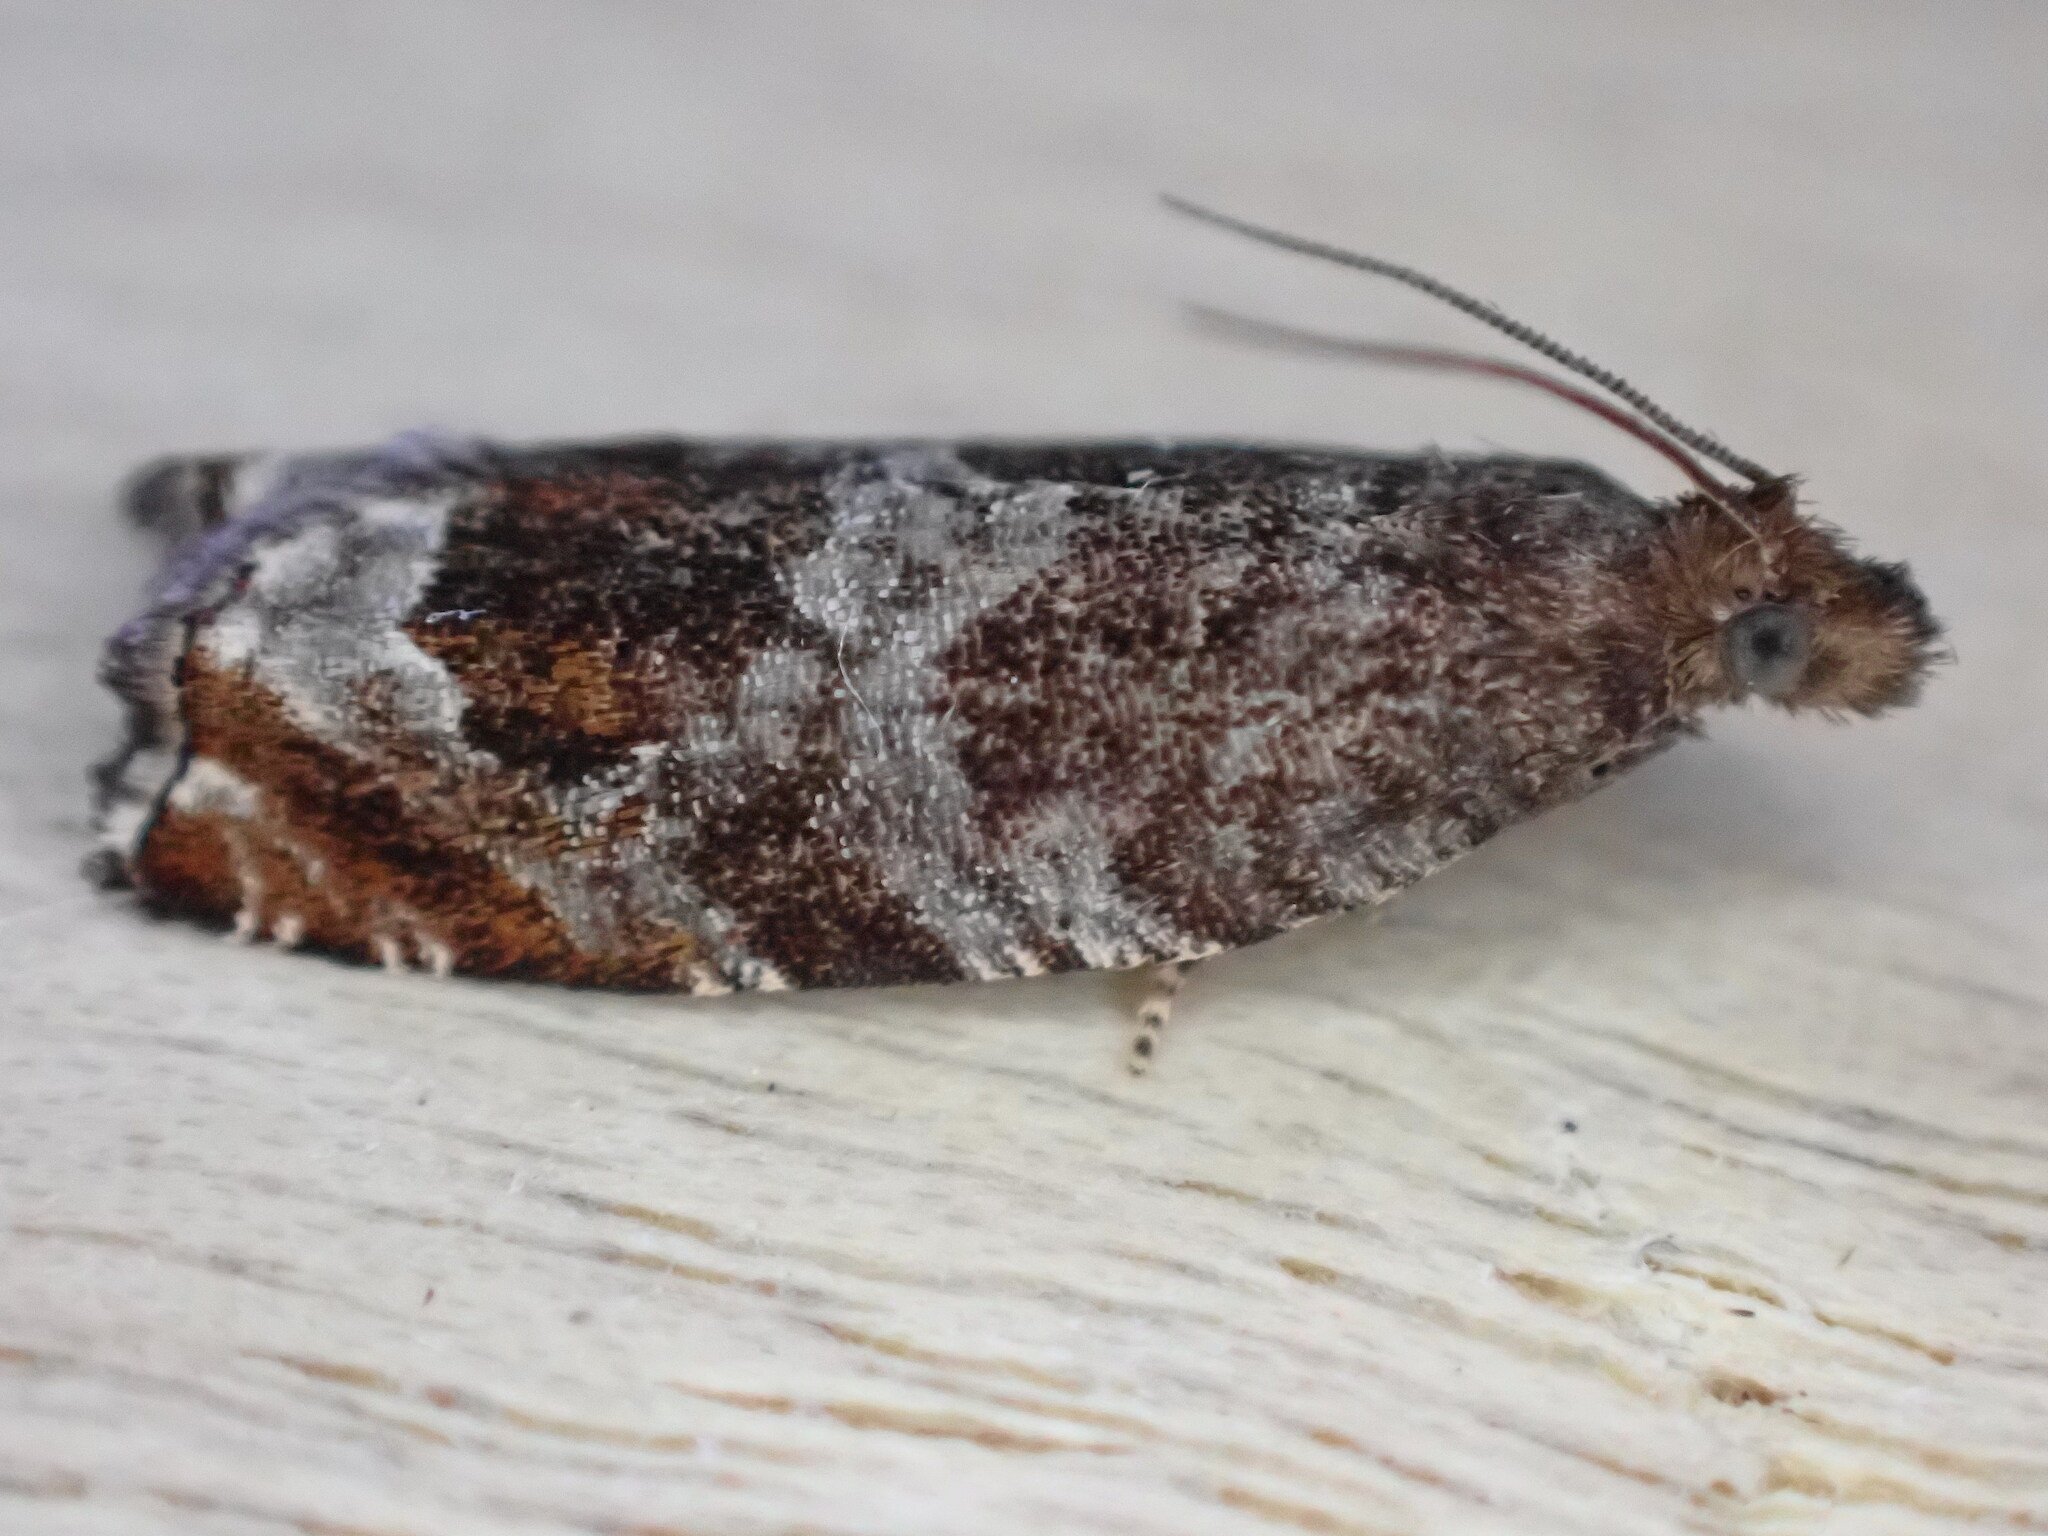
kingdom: Animalia
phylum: Arthropoda
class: Insecta
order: Lepidoptera
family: Tortricidae
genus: Ancylis
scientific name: Ancylis achatana
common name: Triangle-marked roller
